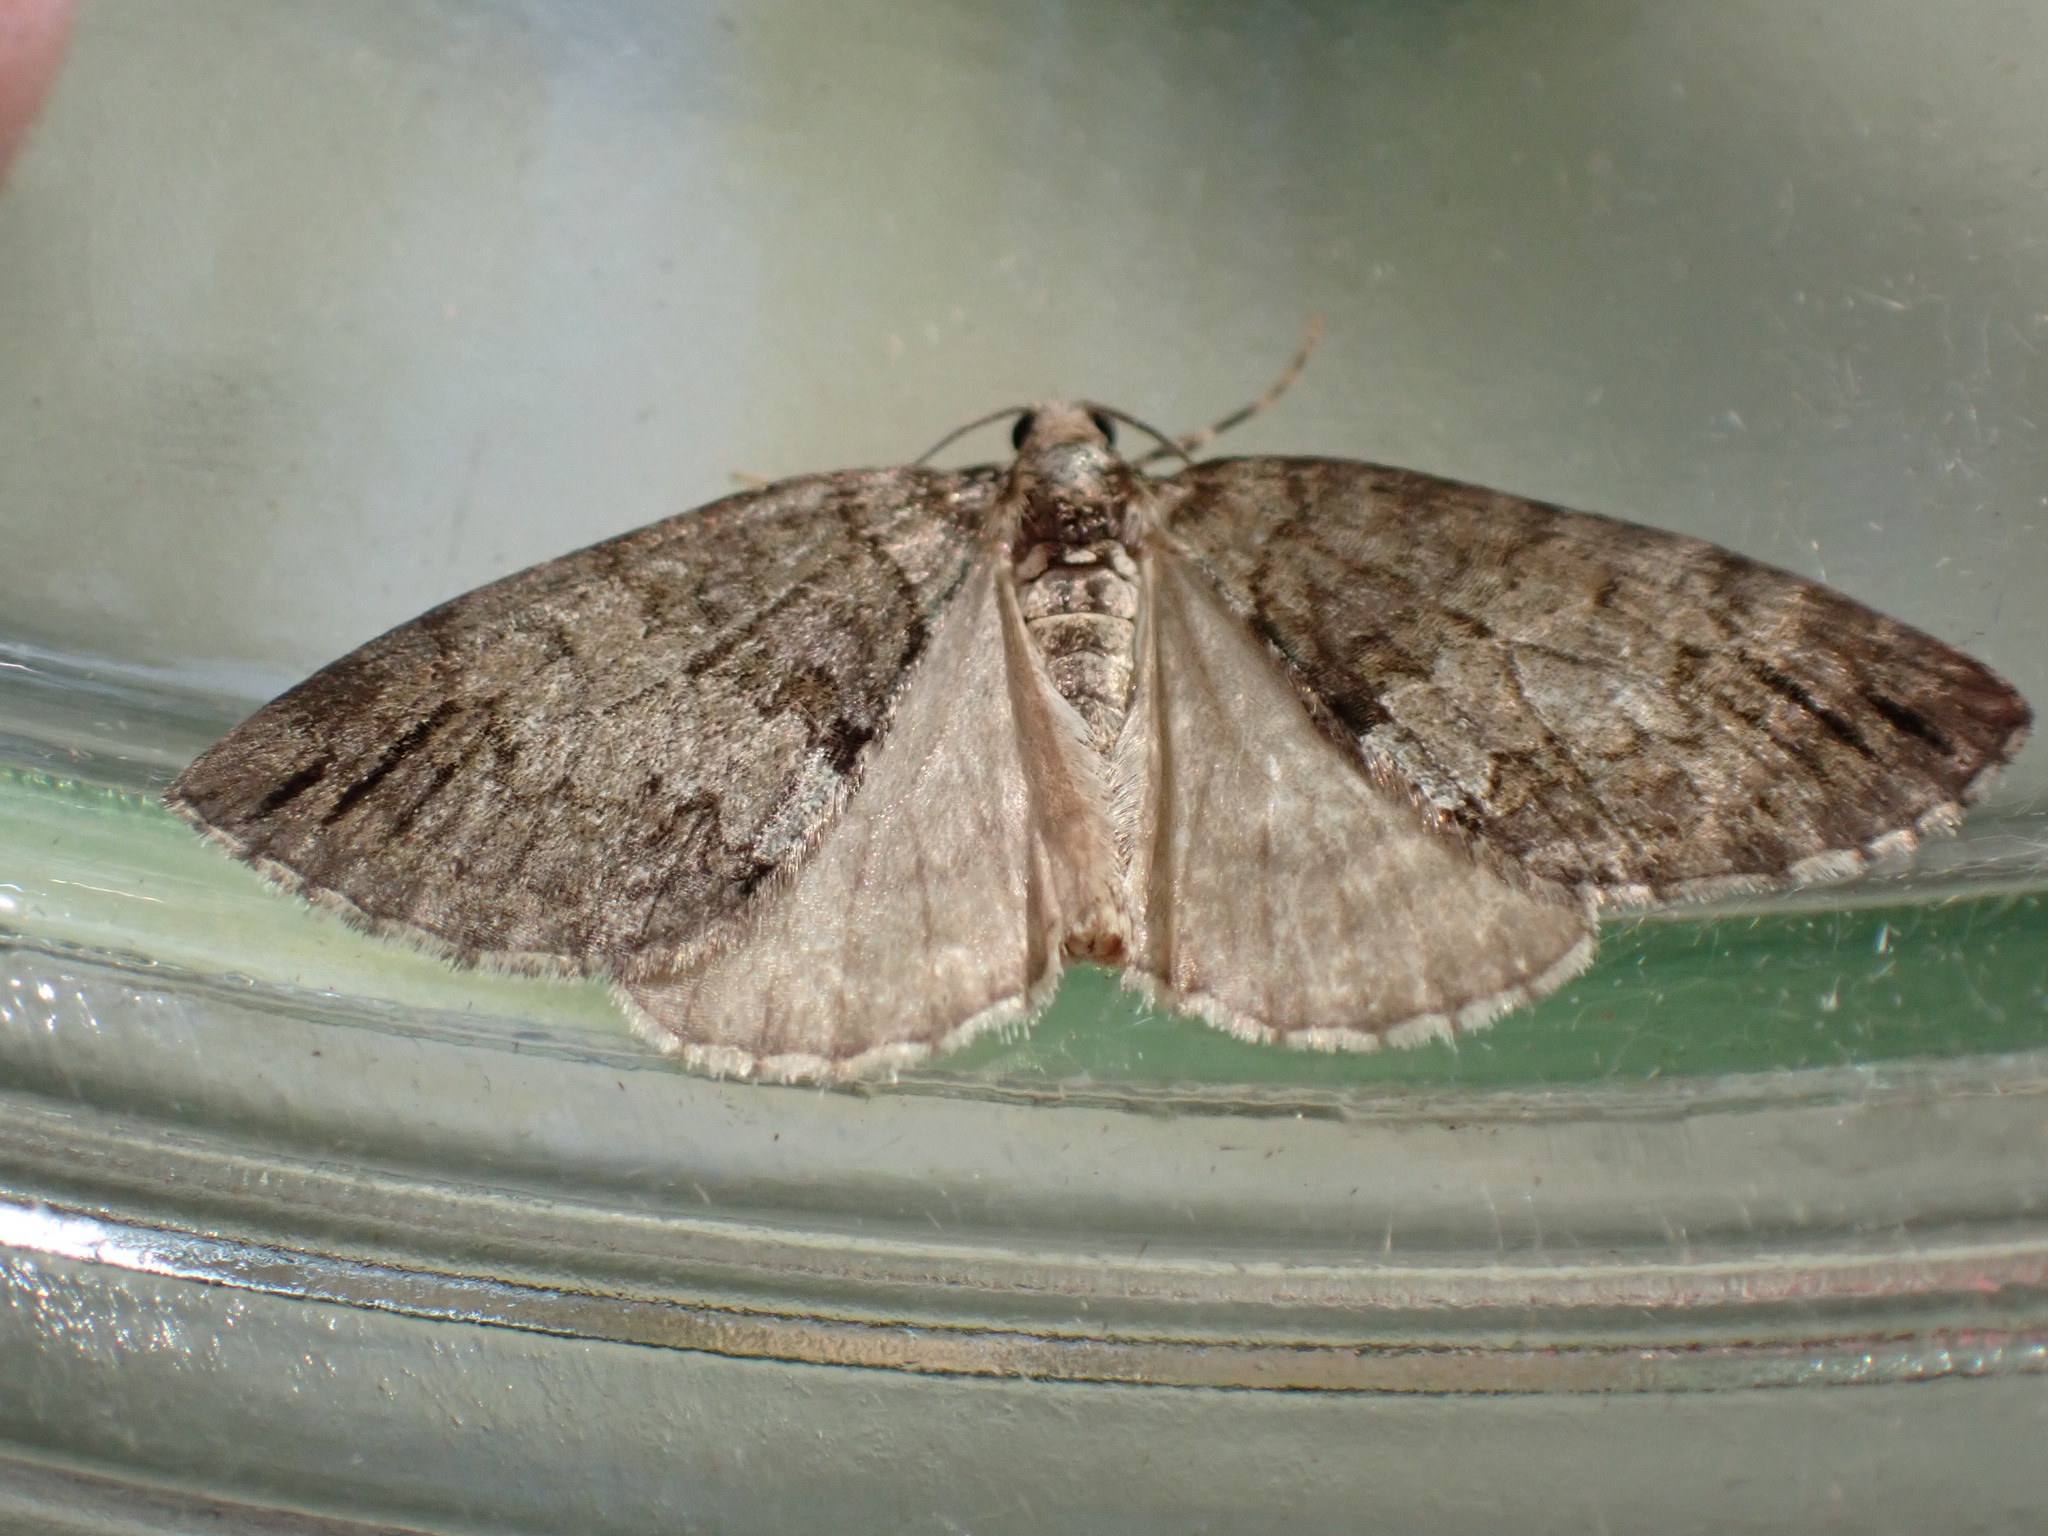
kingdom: Animalia
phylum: Arthropoda
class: Insecta
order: Lepidoptera
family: Geometridae
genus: Hydriomena
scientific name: Hydriomena impluviata
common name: May highflyer
